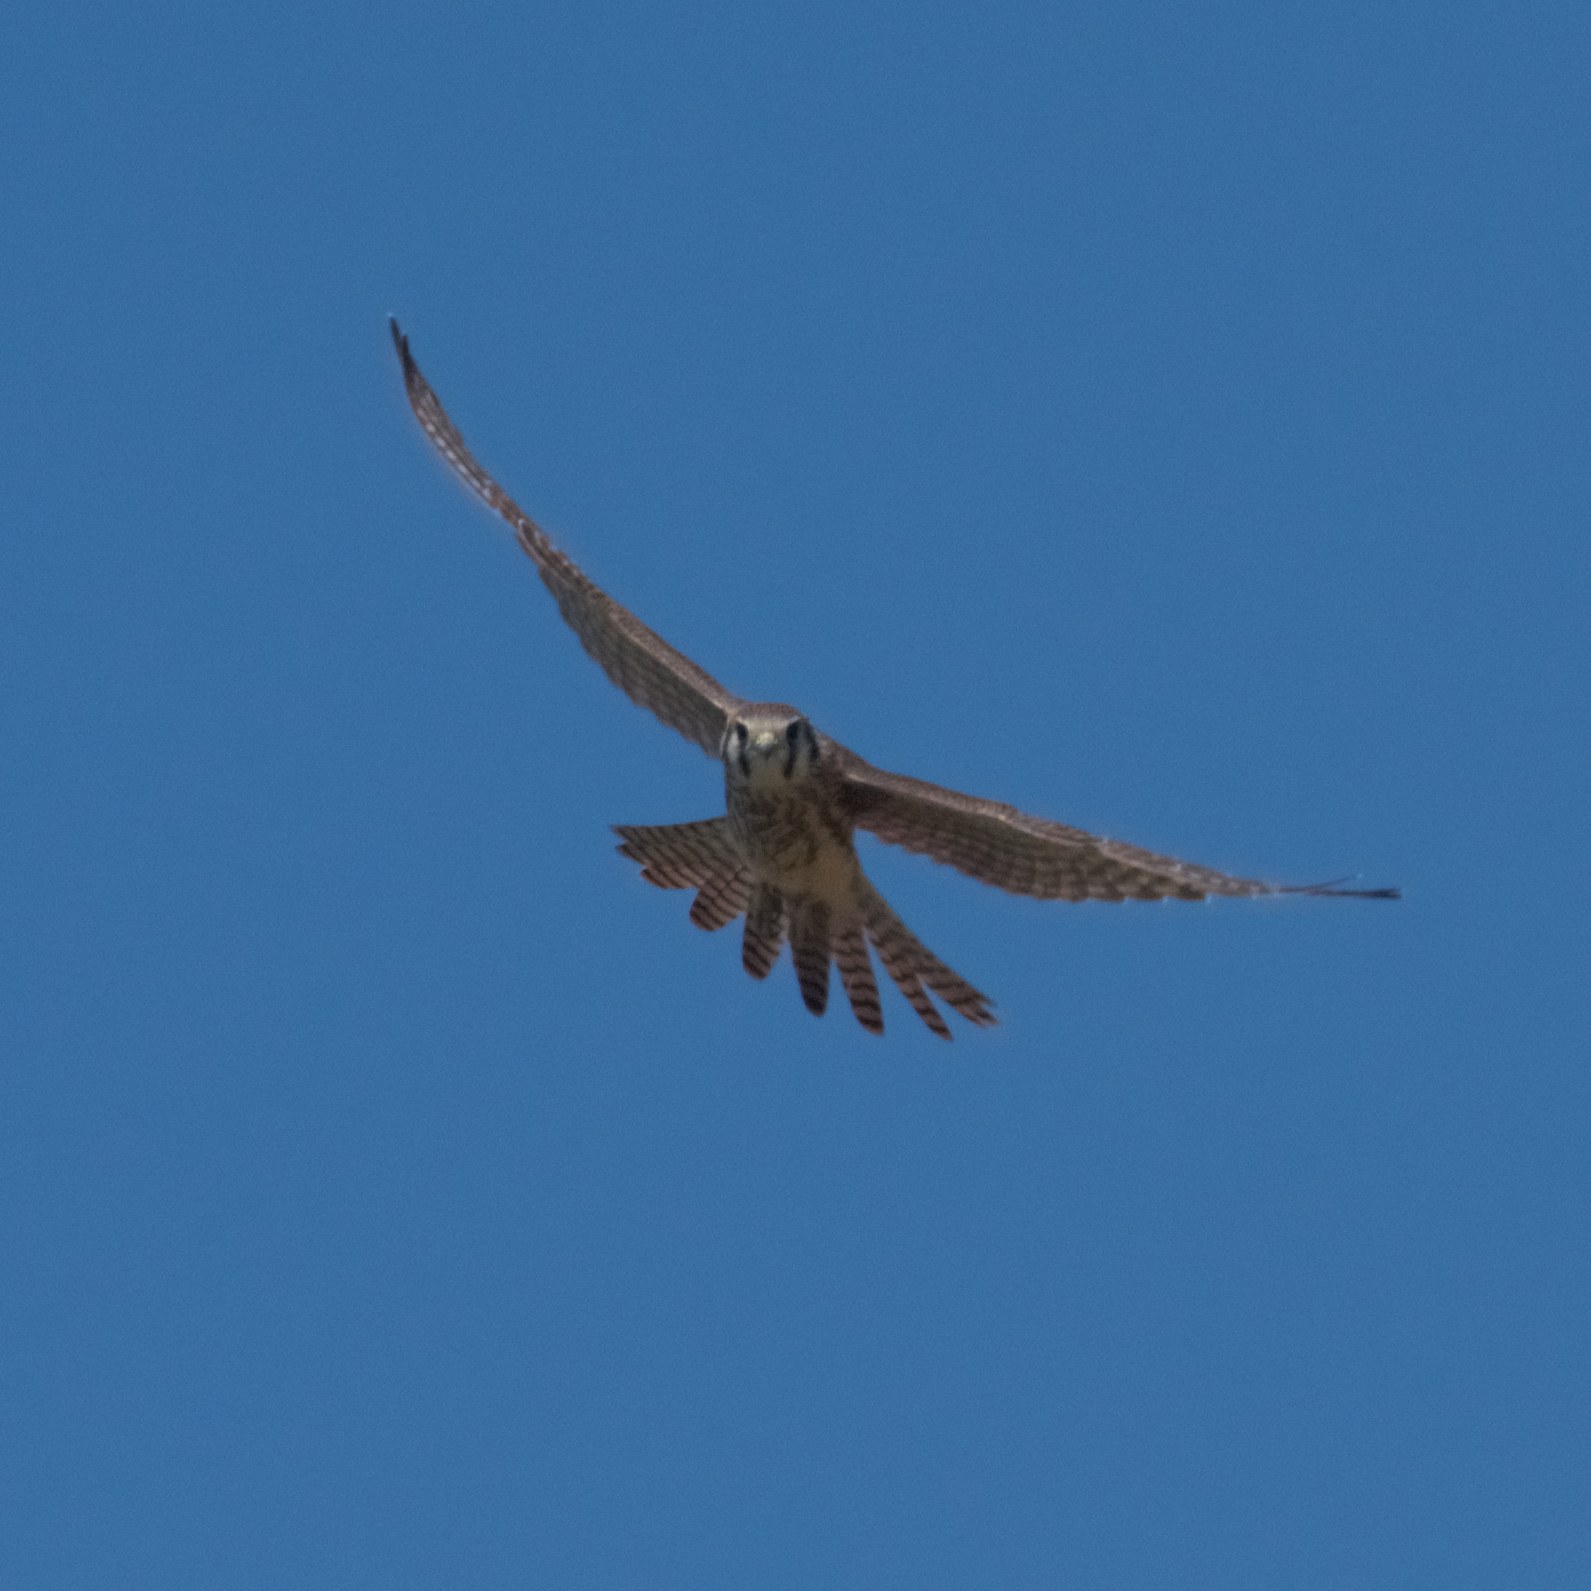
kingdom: Animalia
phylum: Chordata
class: Aves
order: Falconiformes
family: Falconidae
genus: Falco
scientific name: Falco sparverius
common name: American kestrel
